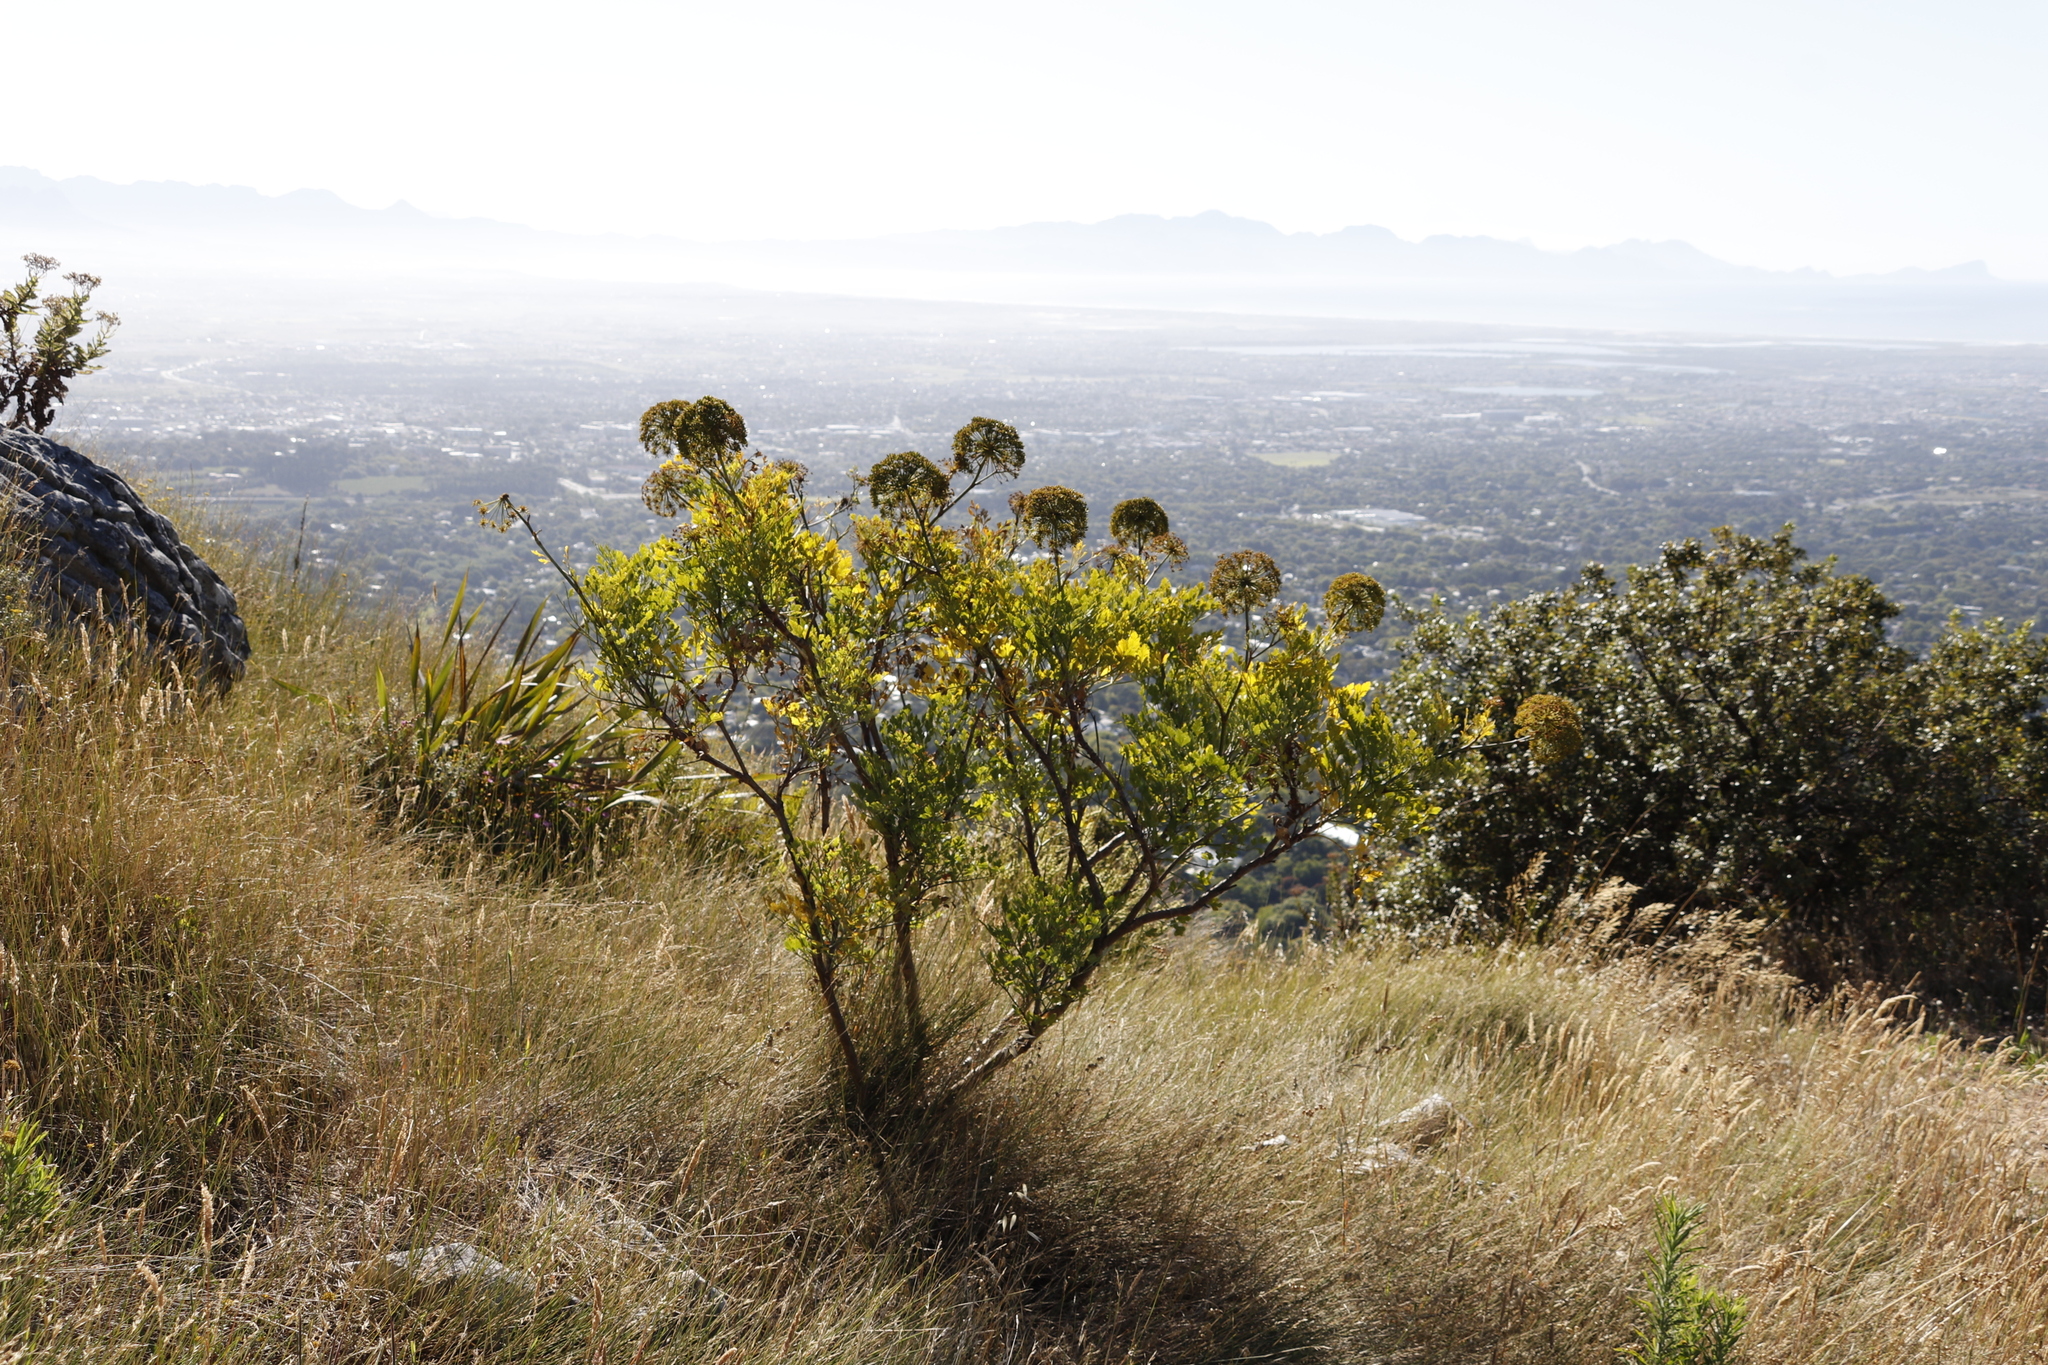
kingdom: Plantae
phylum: Tracheophyta
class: Magnoliopsida
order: Apiales
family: Apiaceae
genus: Notobubon
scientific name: Notobubon galbanum
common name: Blisterbush
